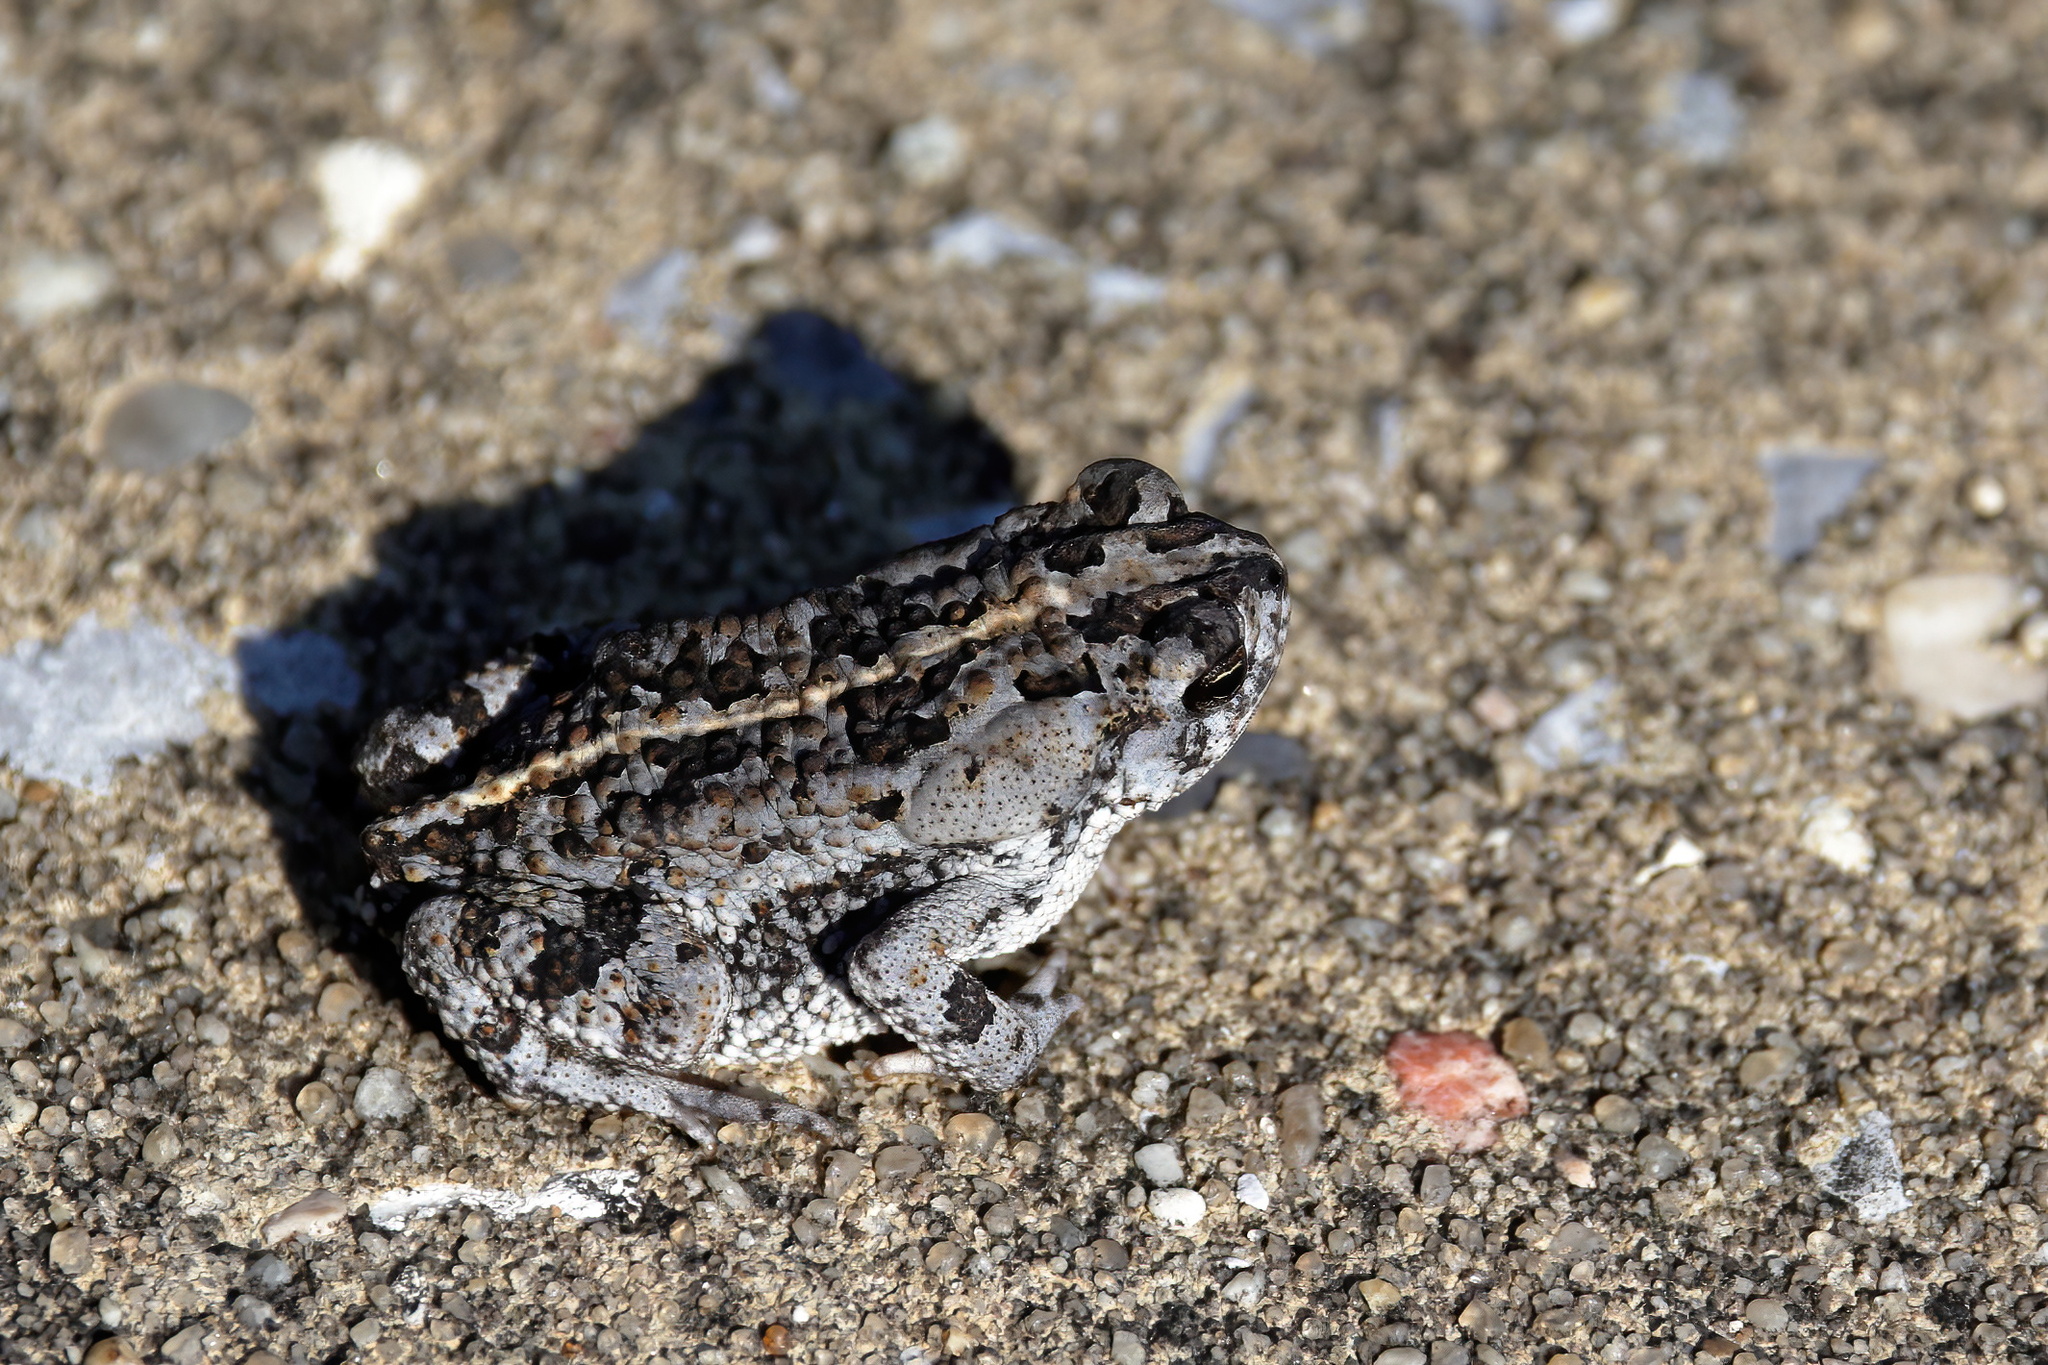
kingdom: Animalia
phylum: Chordata
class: Amphibia
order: Anura
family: Bufonidae
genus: Anaxyrus
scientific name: Anaxyrus quercicus
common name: Oak toad
